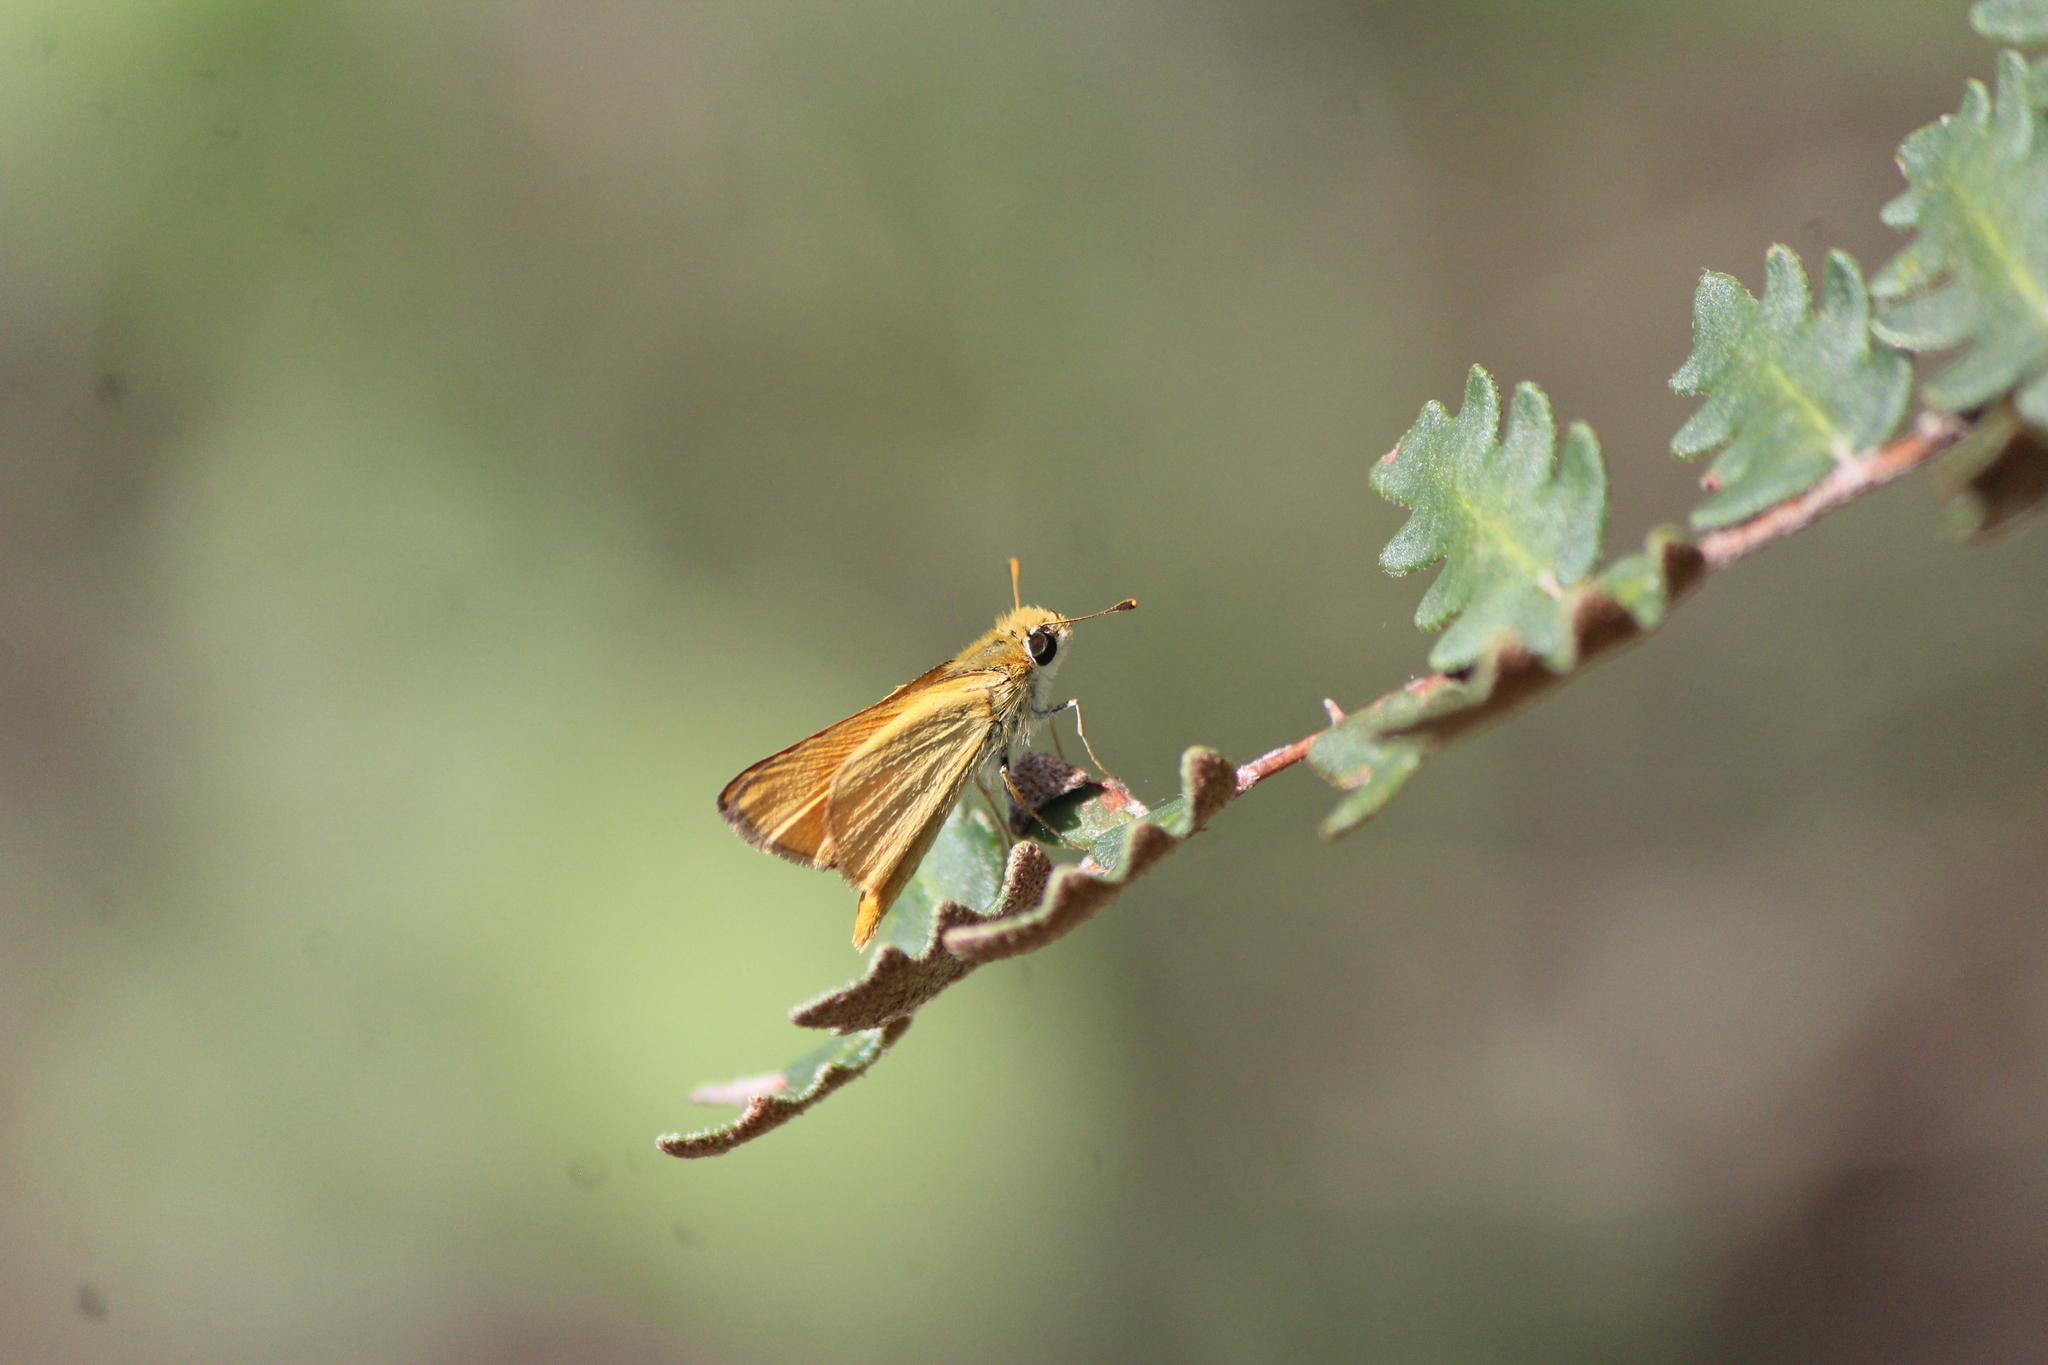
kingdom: Animalia
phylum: Arthropoda
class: Insecta
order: Lepidoptera
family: Hesperiidae
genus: Copaeodes
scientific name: Copaeodes aurantiaca
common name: Orange skipperling
